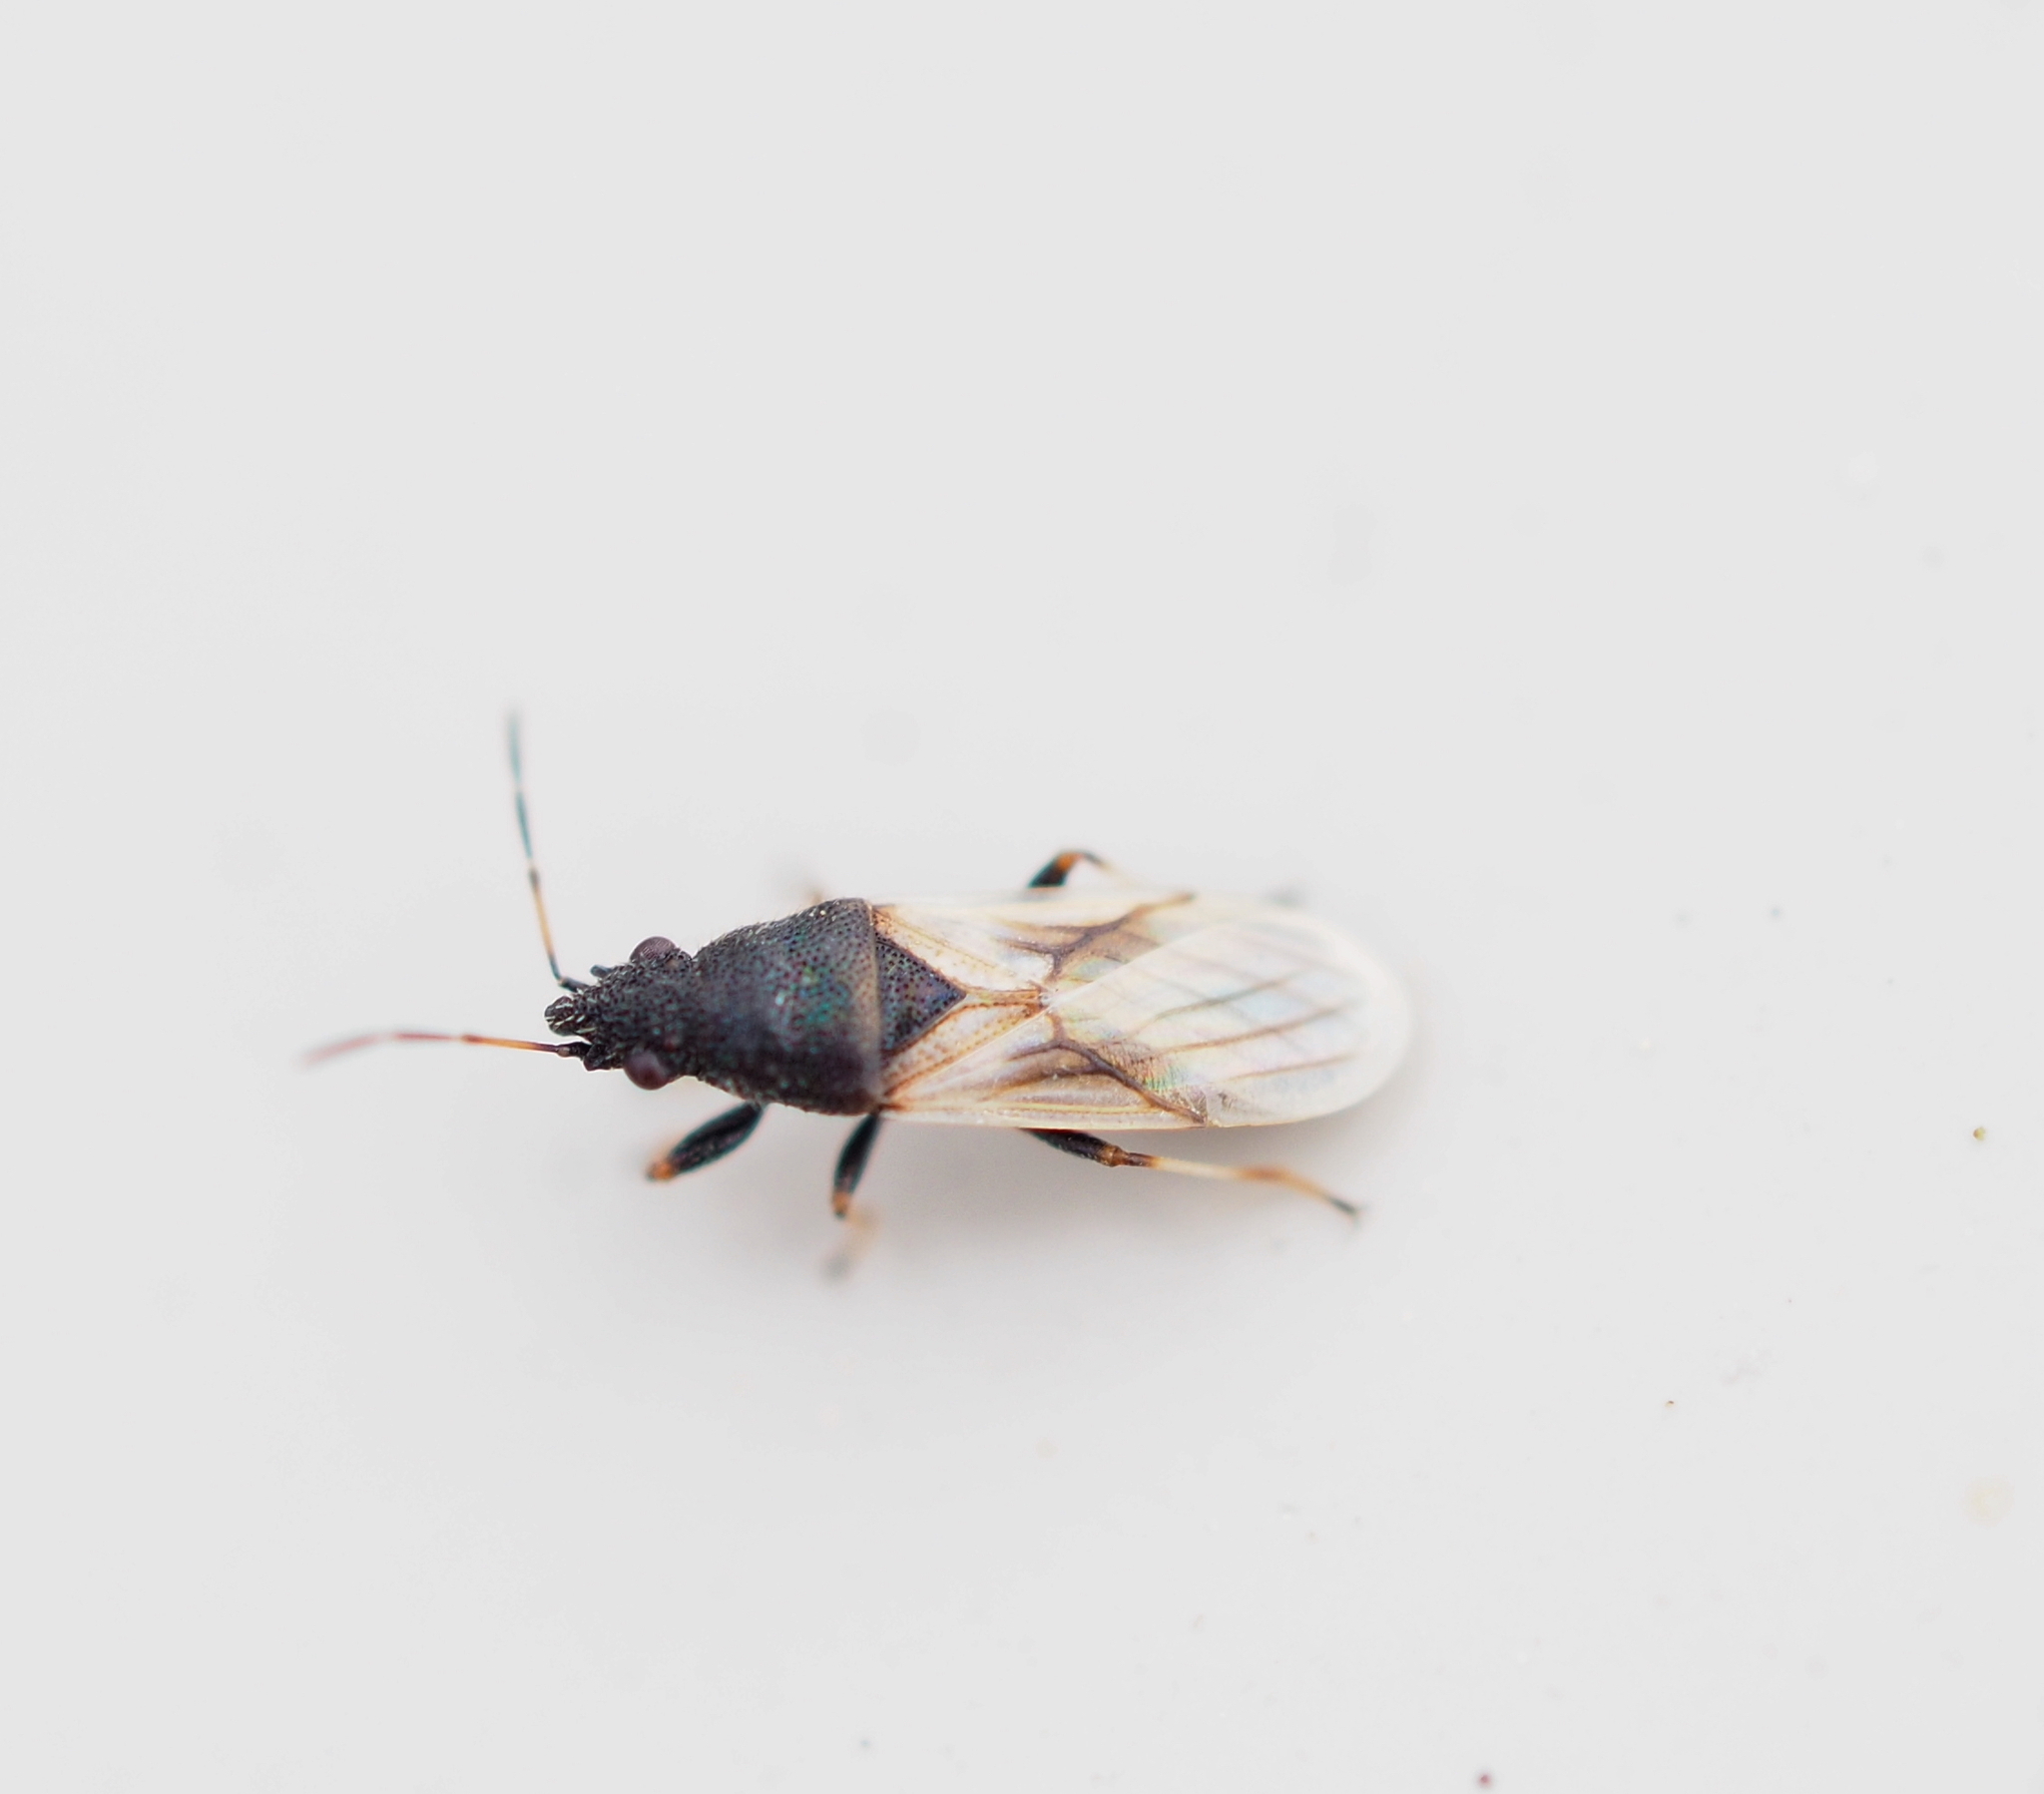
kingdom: Animalia
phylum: Arthropoda
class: Insecta
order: Hemiptera
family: Oxycarenidae
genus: Metopoplax
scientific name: Metopoplax origani
